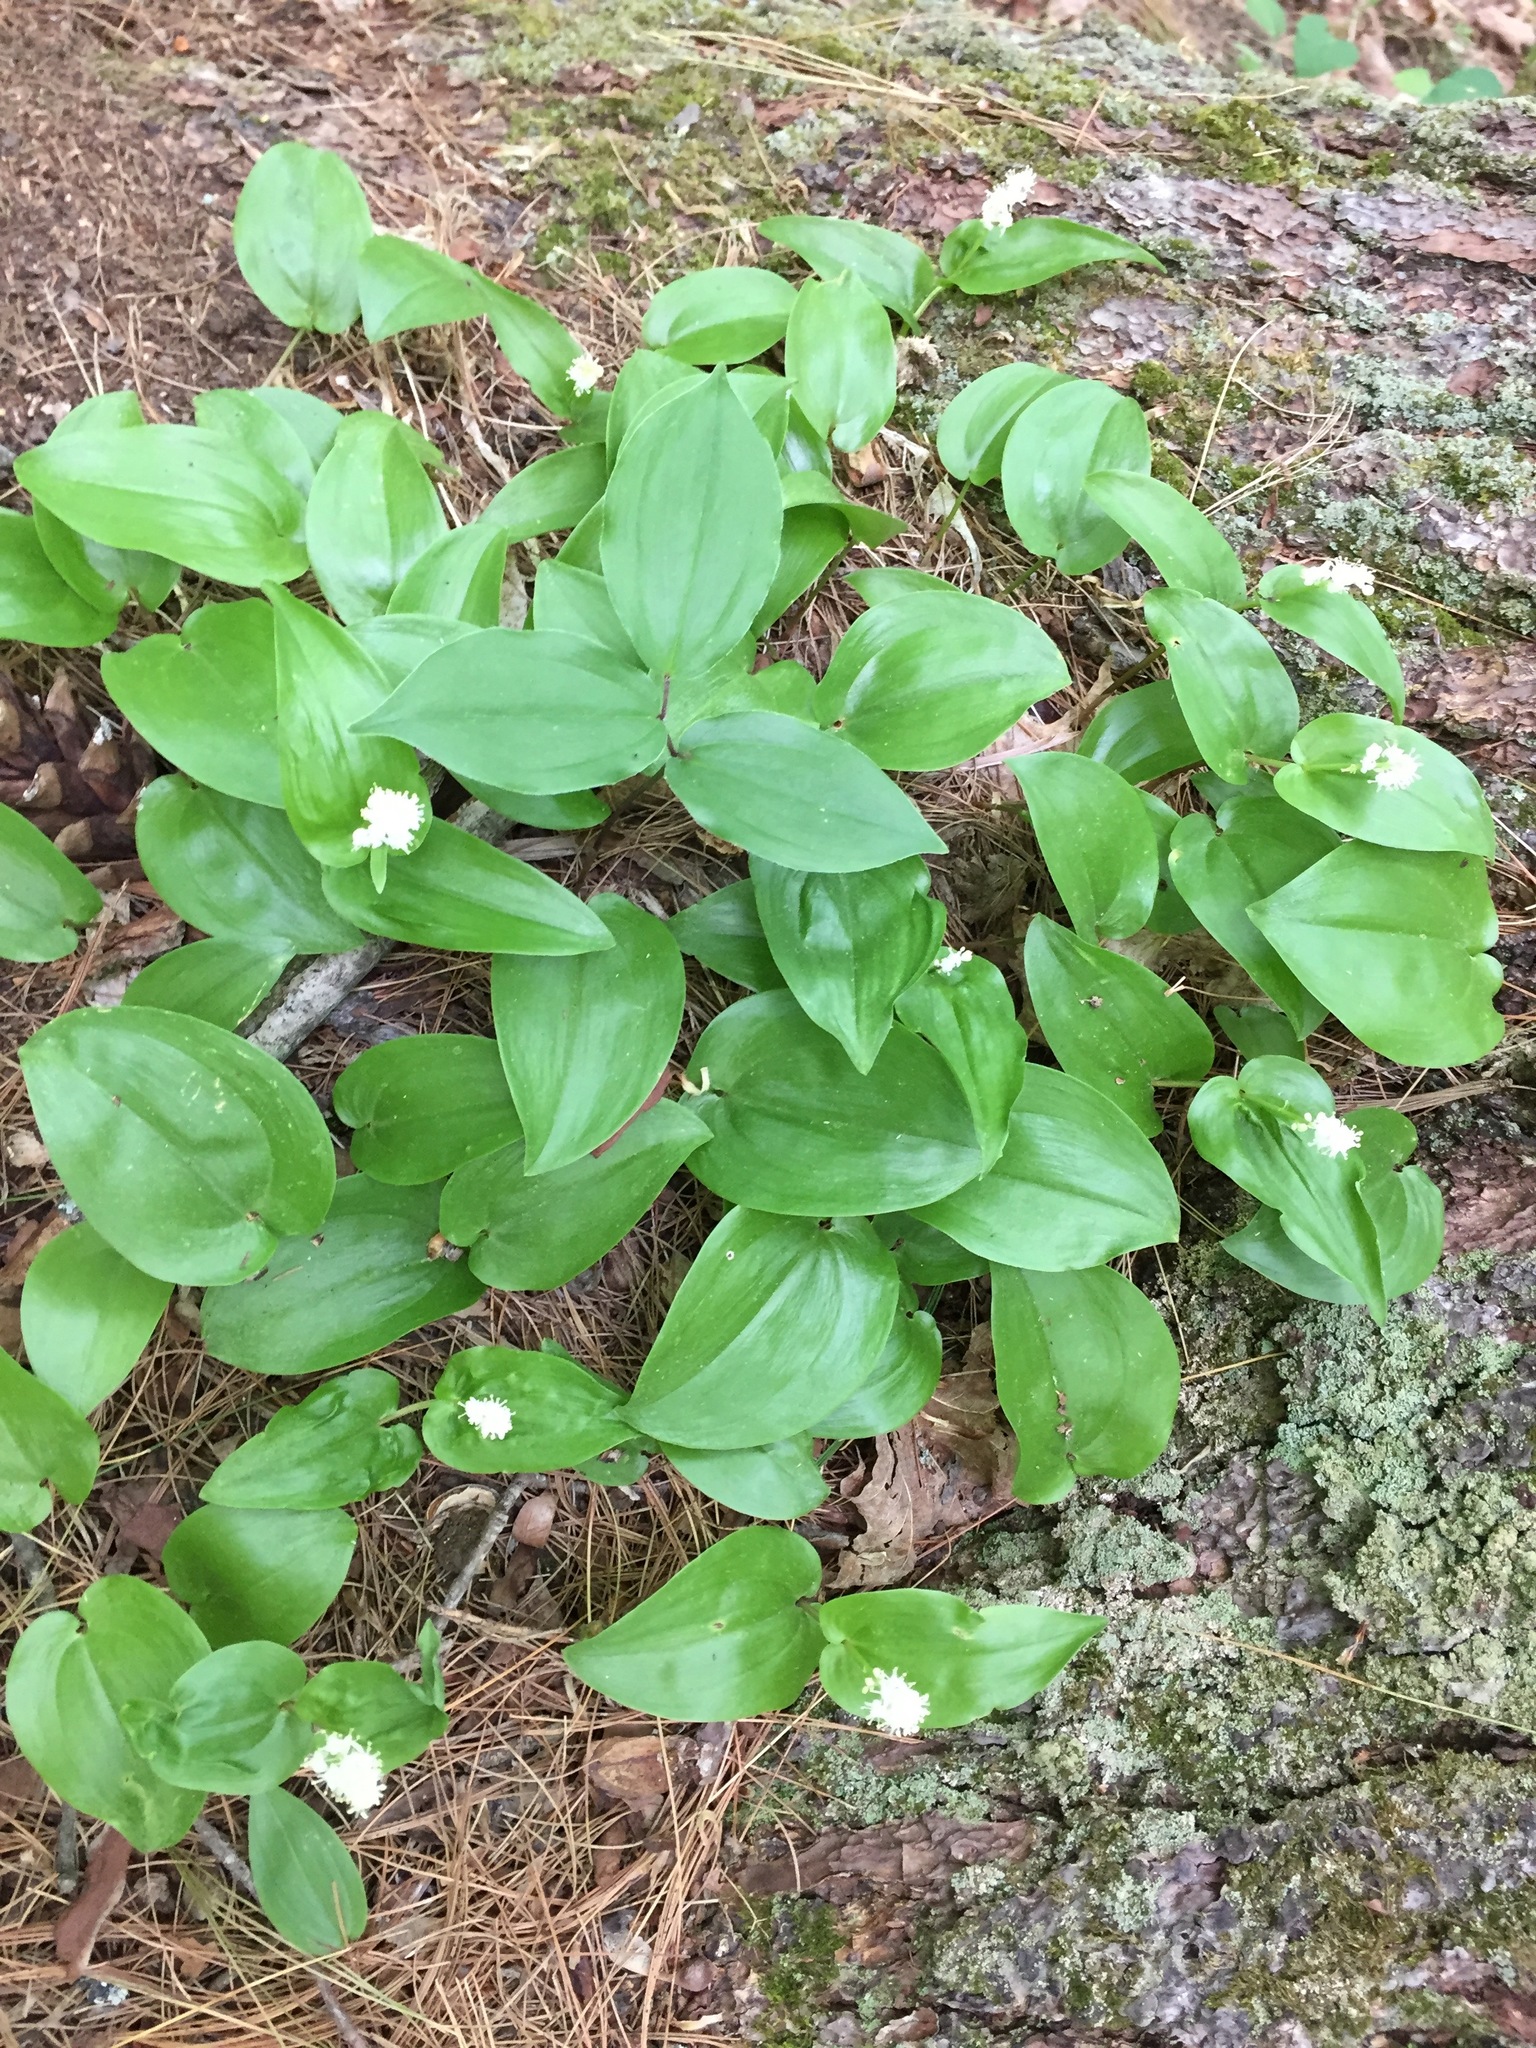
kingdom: Plantae
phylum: Tracheophyta
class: Liliopsida
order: Asparagales
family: Asparagaceae
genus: Maianthemum
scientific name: Maianthemum canadense
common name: False lily-of-the-valley
